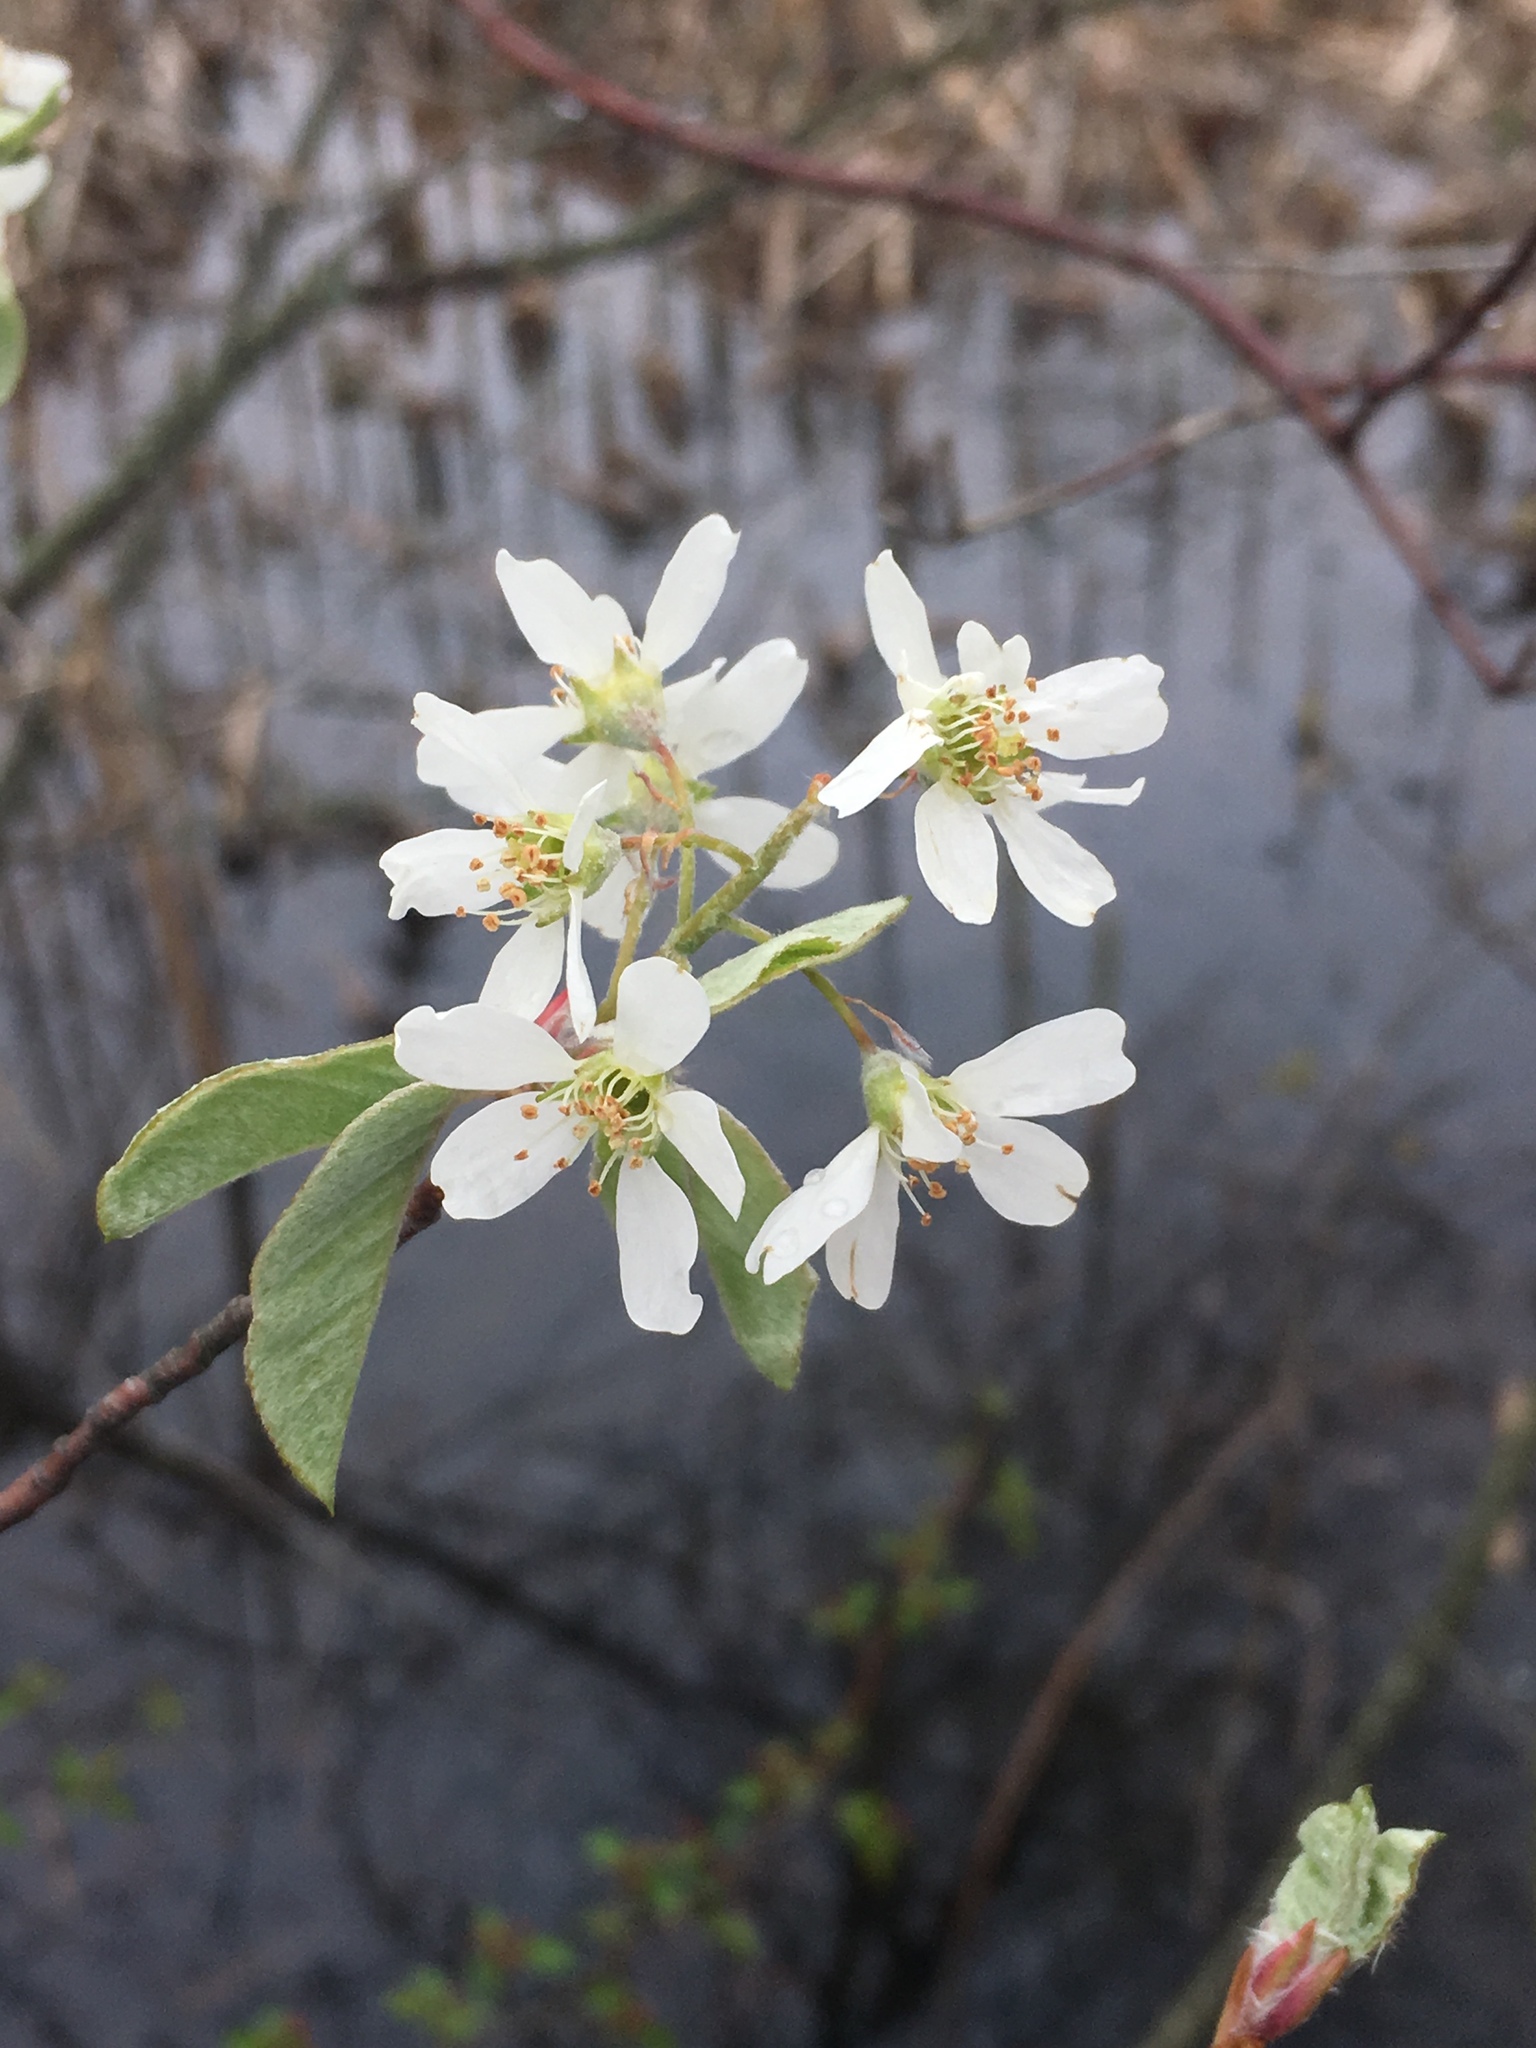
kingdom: Plantae
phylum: Tracheophyta
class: Magnoliopsida
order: Rosales
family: Rosaceae
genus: Amelanchier
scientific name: Amelanchier arborea
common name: Downy serviceberry
